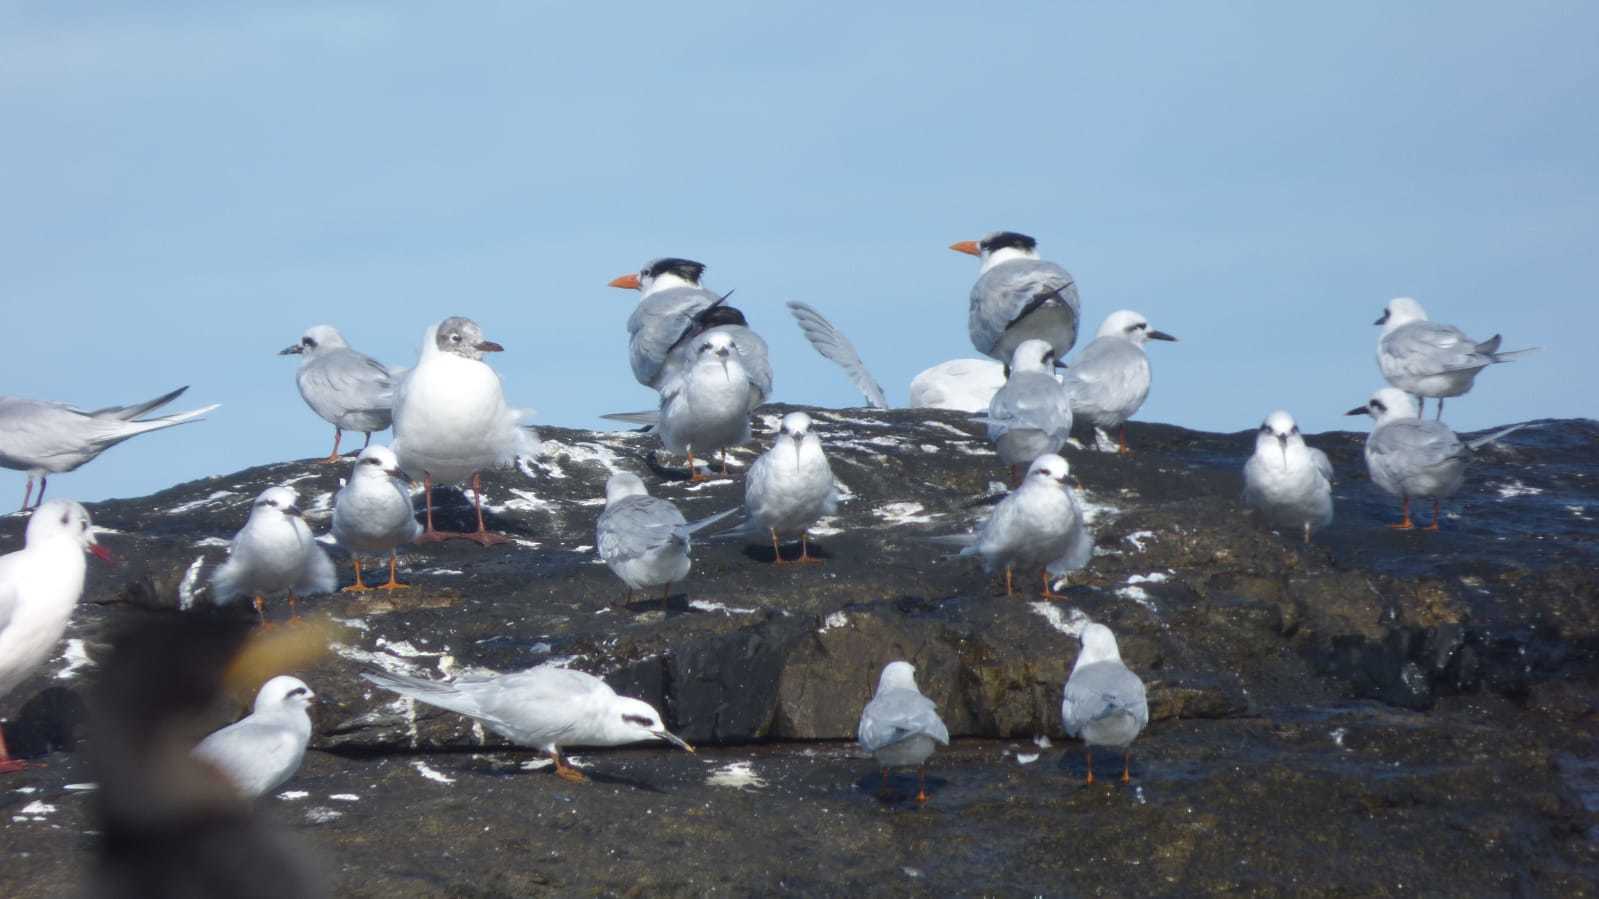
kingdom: Animalia
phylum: Chordata
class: Aves
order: Charadriiformes
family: Laridae
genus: Thalasseus
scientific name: Thalasseus maximus
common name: Royal tern
